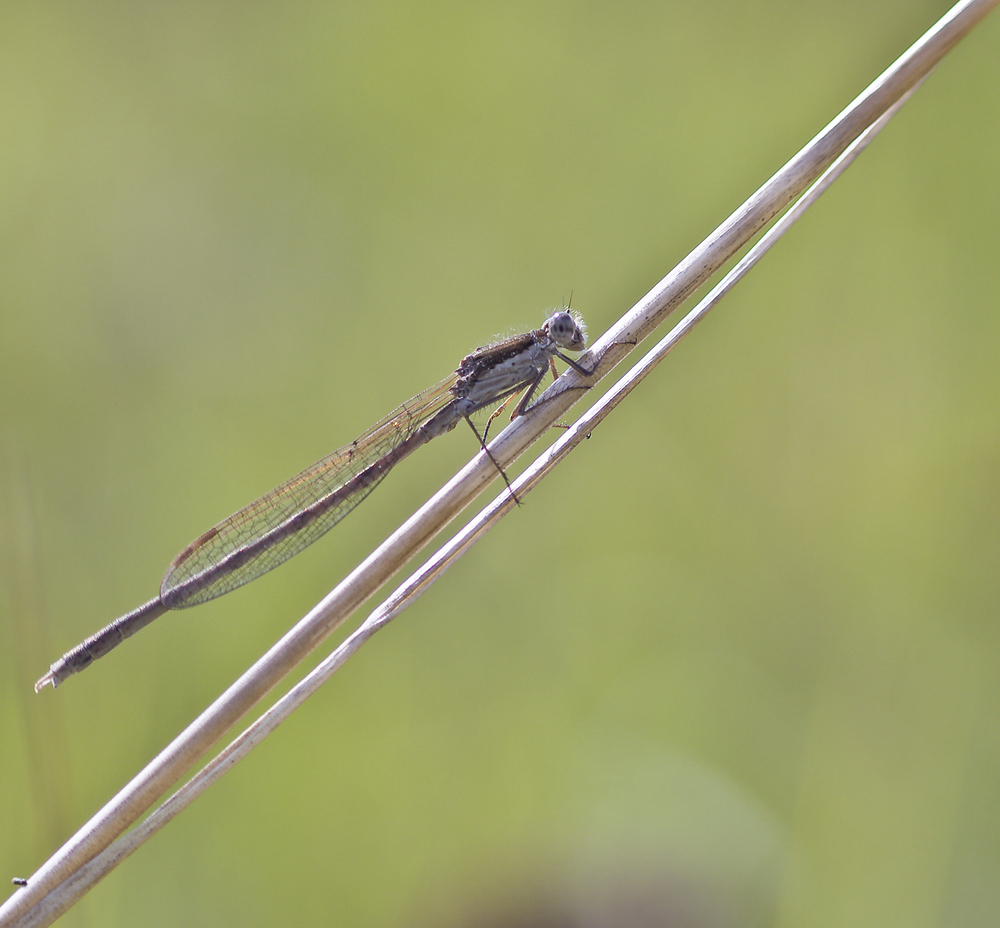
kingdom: Animalia
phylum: Arthropoda
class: Insecta
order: Odonata
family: Lestidae
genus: Sympecma
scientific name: Sympecma fusca
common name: Common winter damsel
